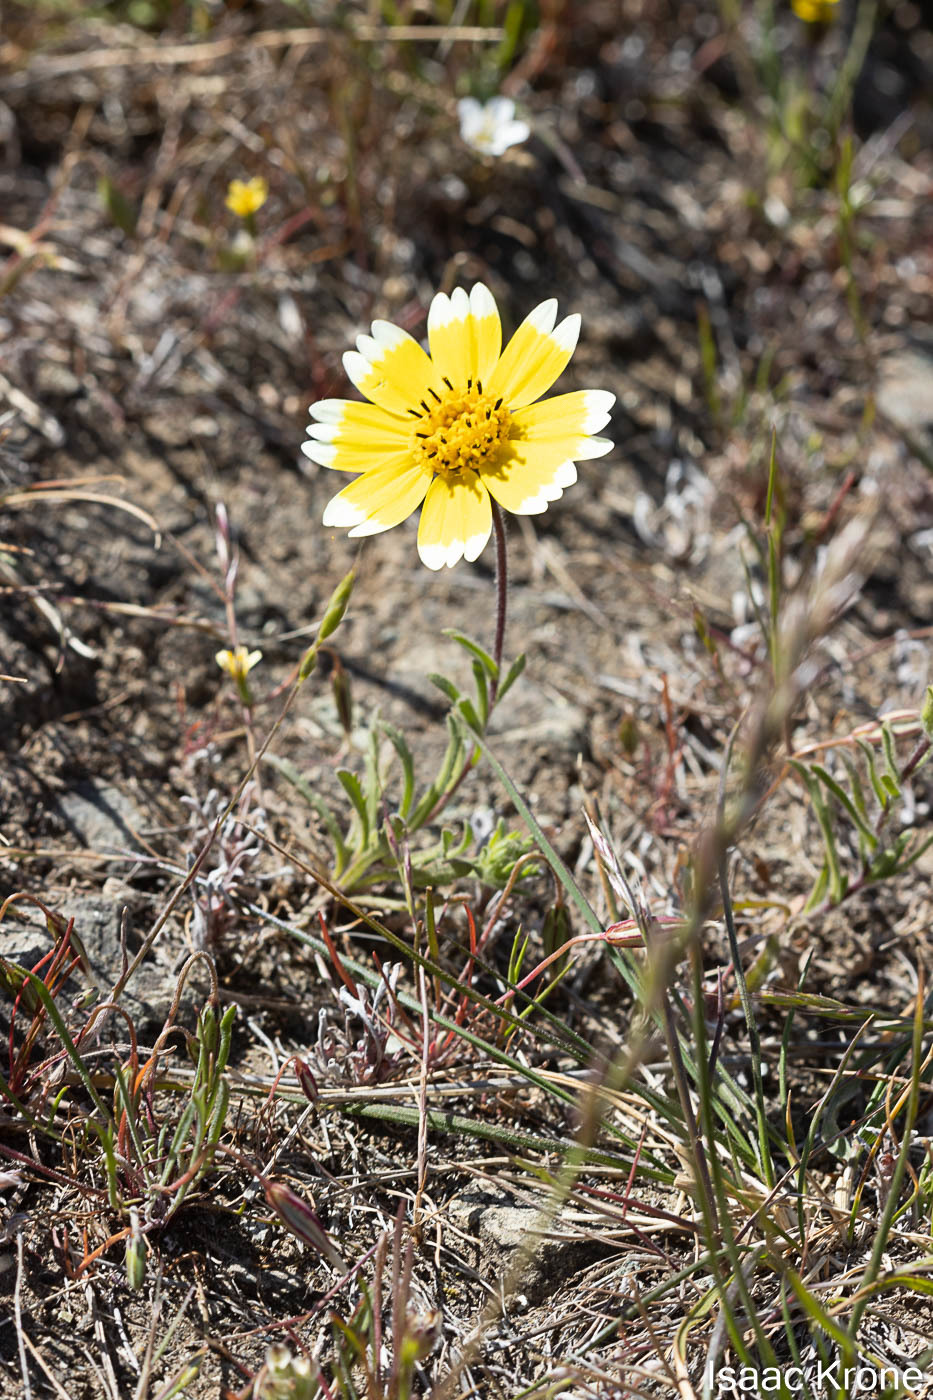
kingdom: Plantae
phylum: Tracheophyta
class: Magnoliopsida
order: Asterales
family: Asteraceae
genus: Layia
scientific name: Layia platyglossa
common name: Tidy-tips
